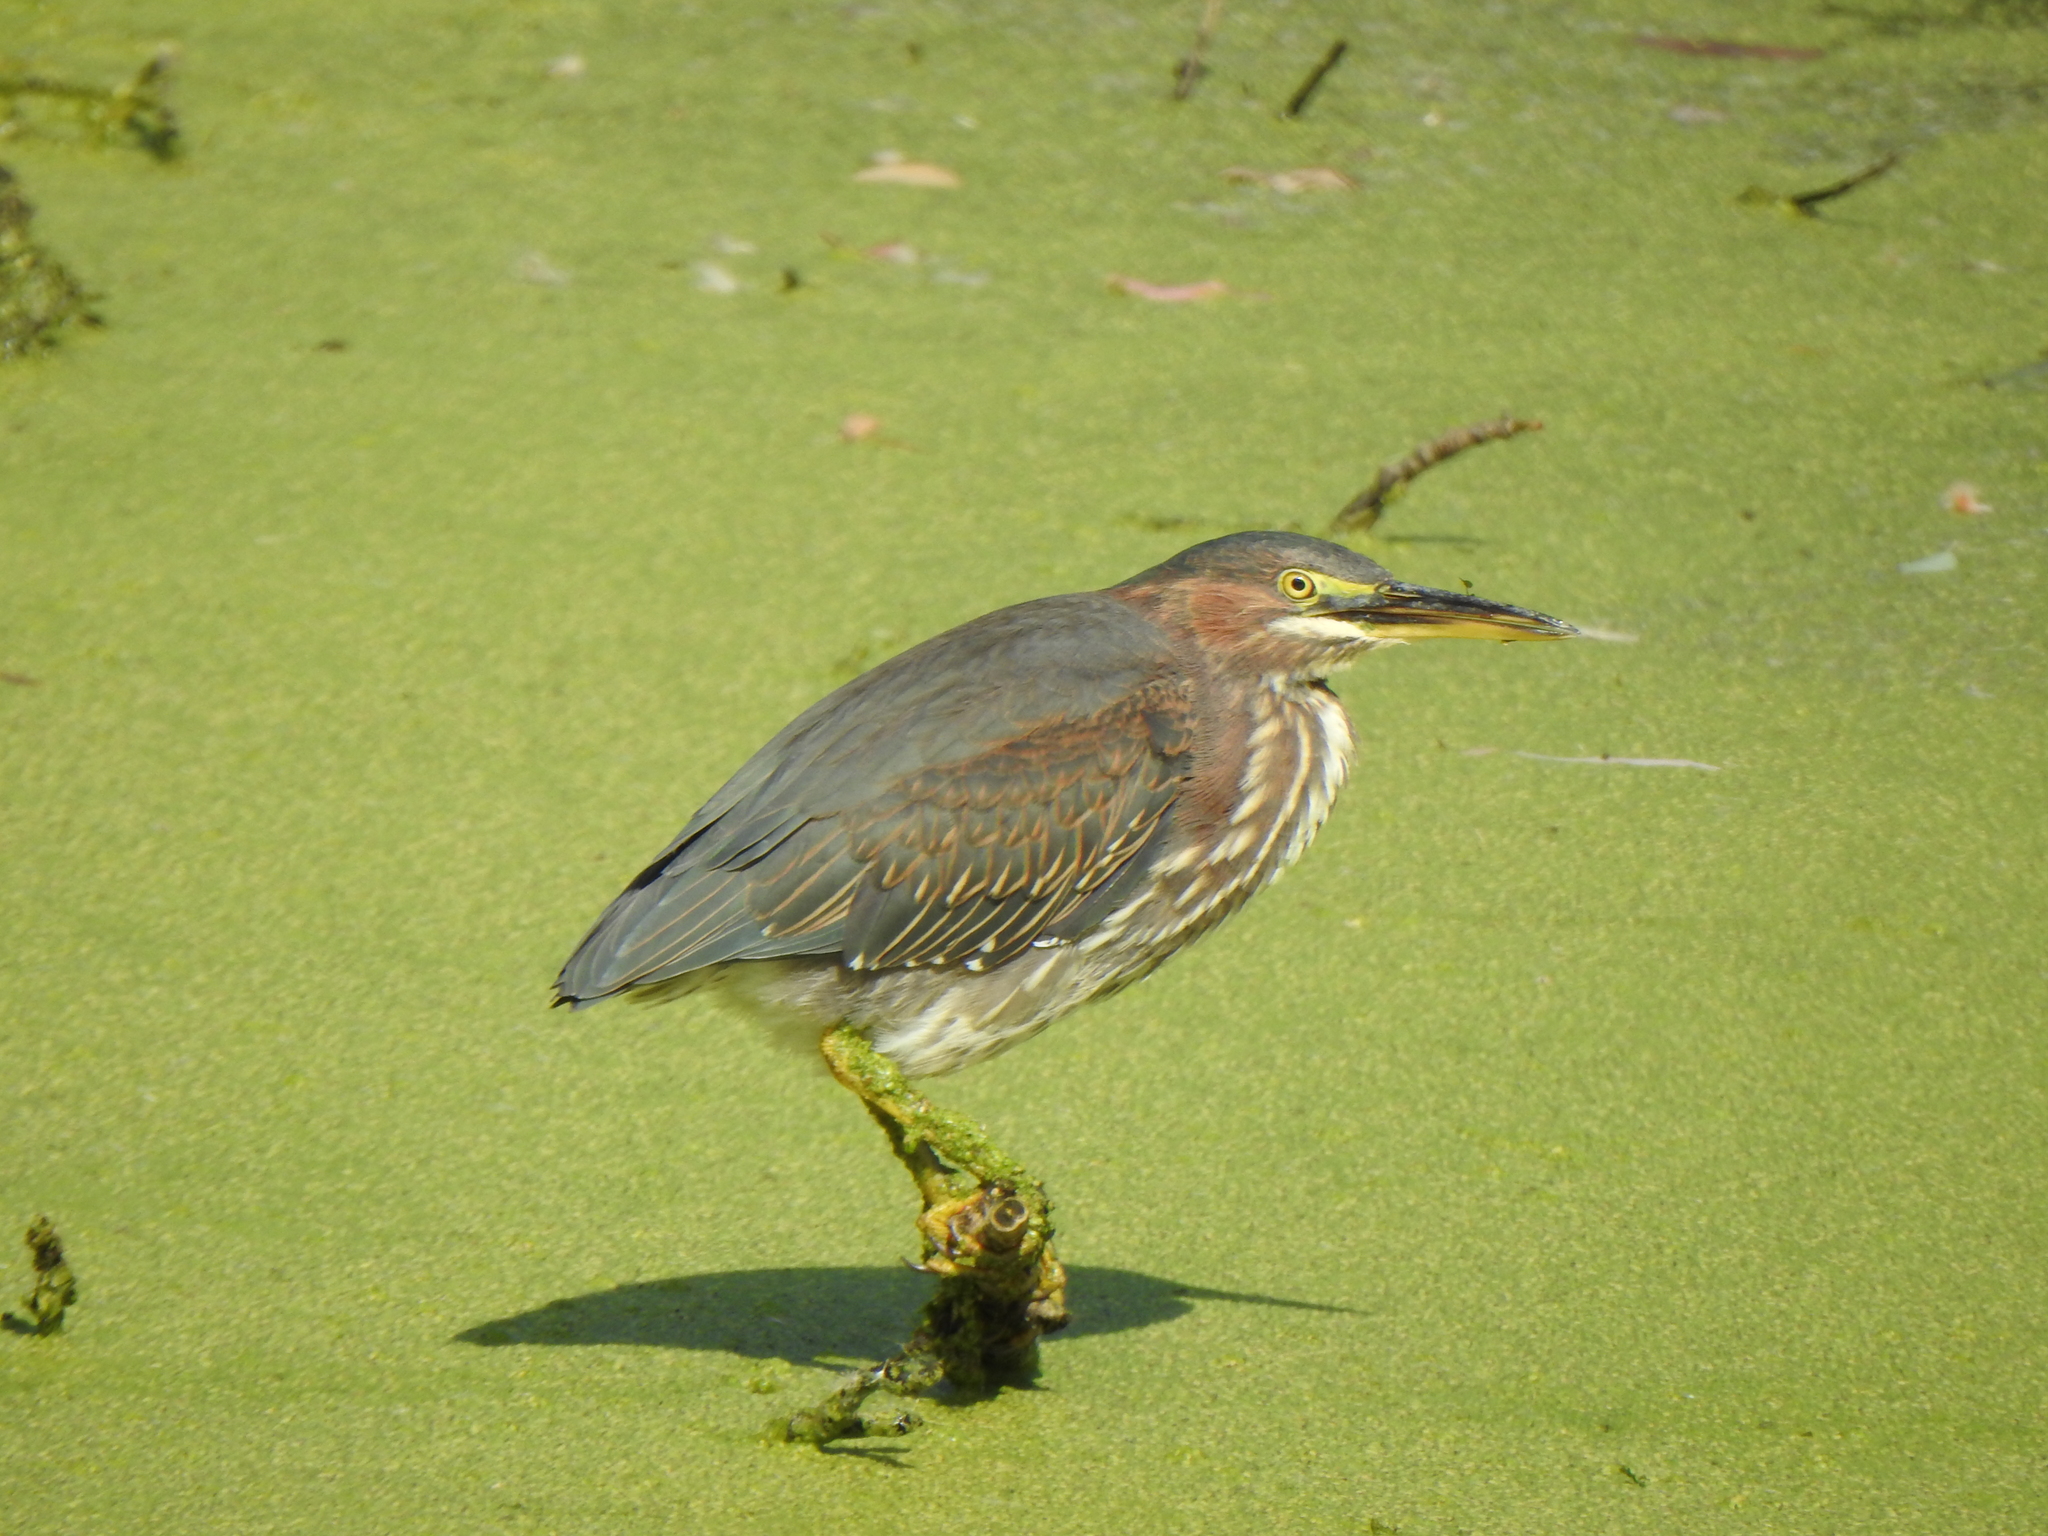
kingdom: Animalia
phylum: Chordata
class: Aves
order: Pelecaniformes
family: Ardeidae
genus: Butorides
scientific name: Butorides virescens
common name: Green heron
